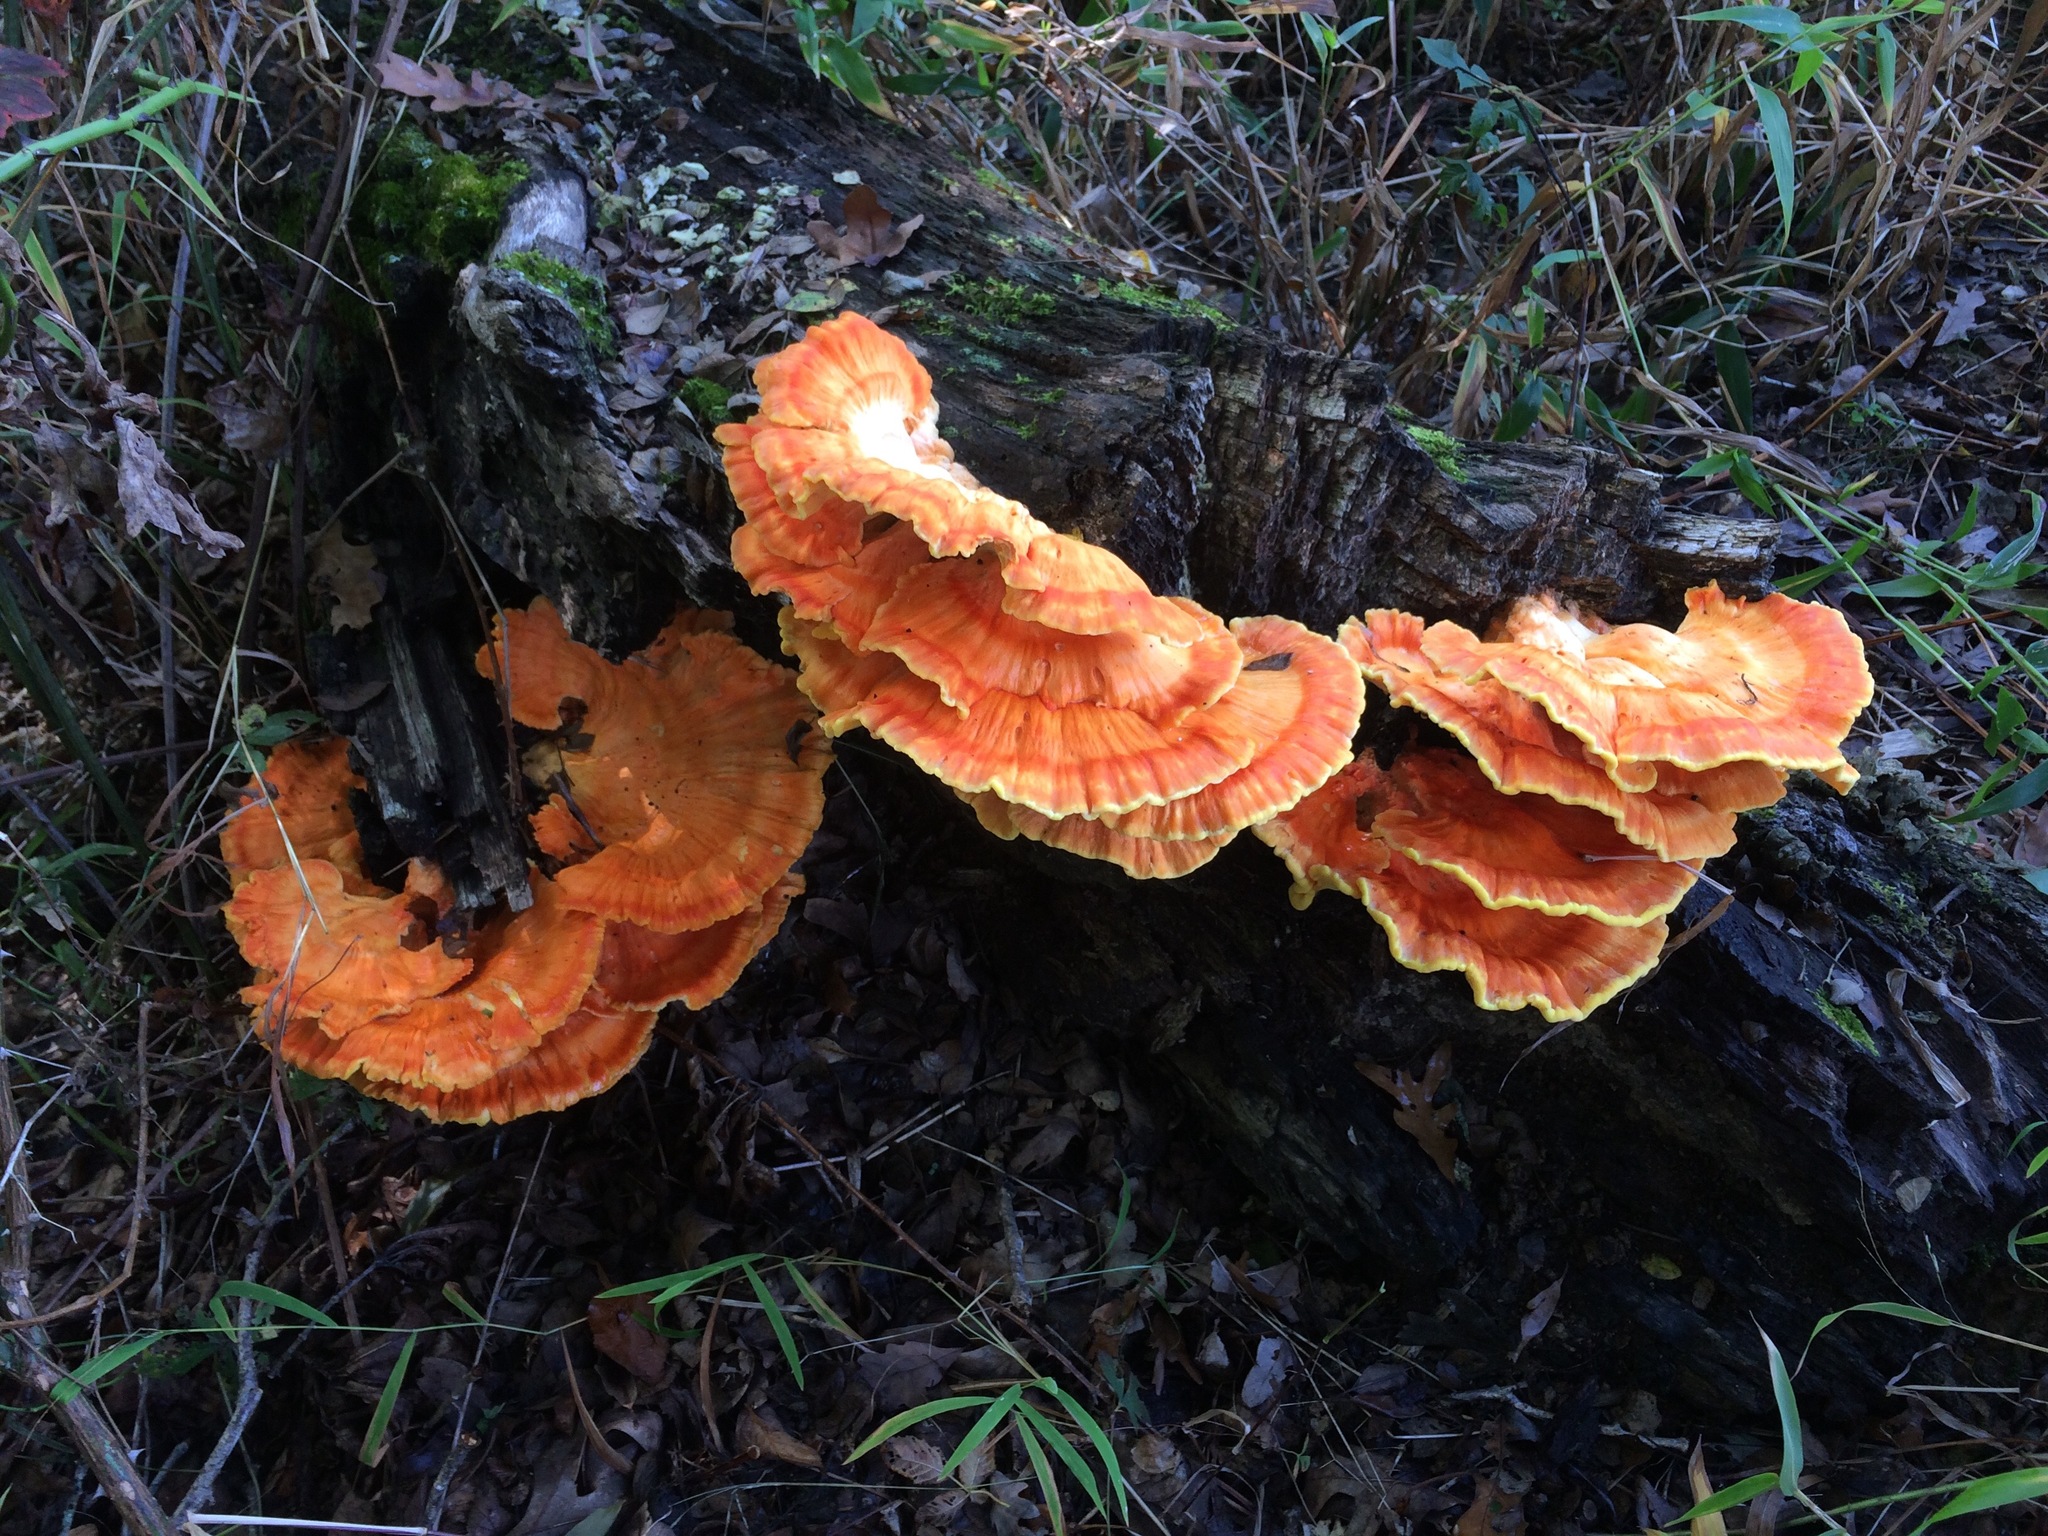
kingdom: Fungi
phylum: Basidiomycota
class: Agaricomycetes
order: Polyporales
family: Laetiporaceae
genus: Laetiporus
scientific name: Laetiporus sulphureus
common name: Chicken of the woods
